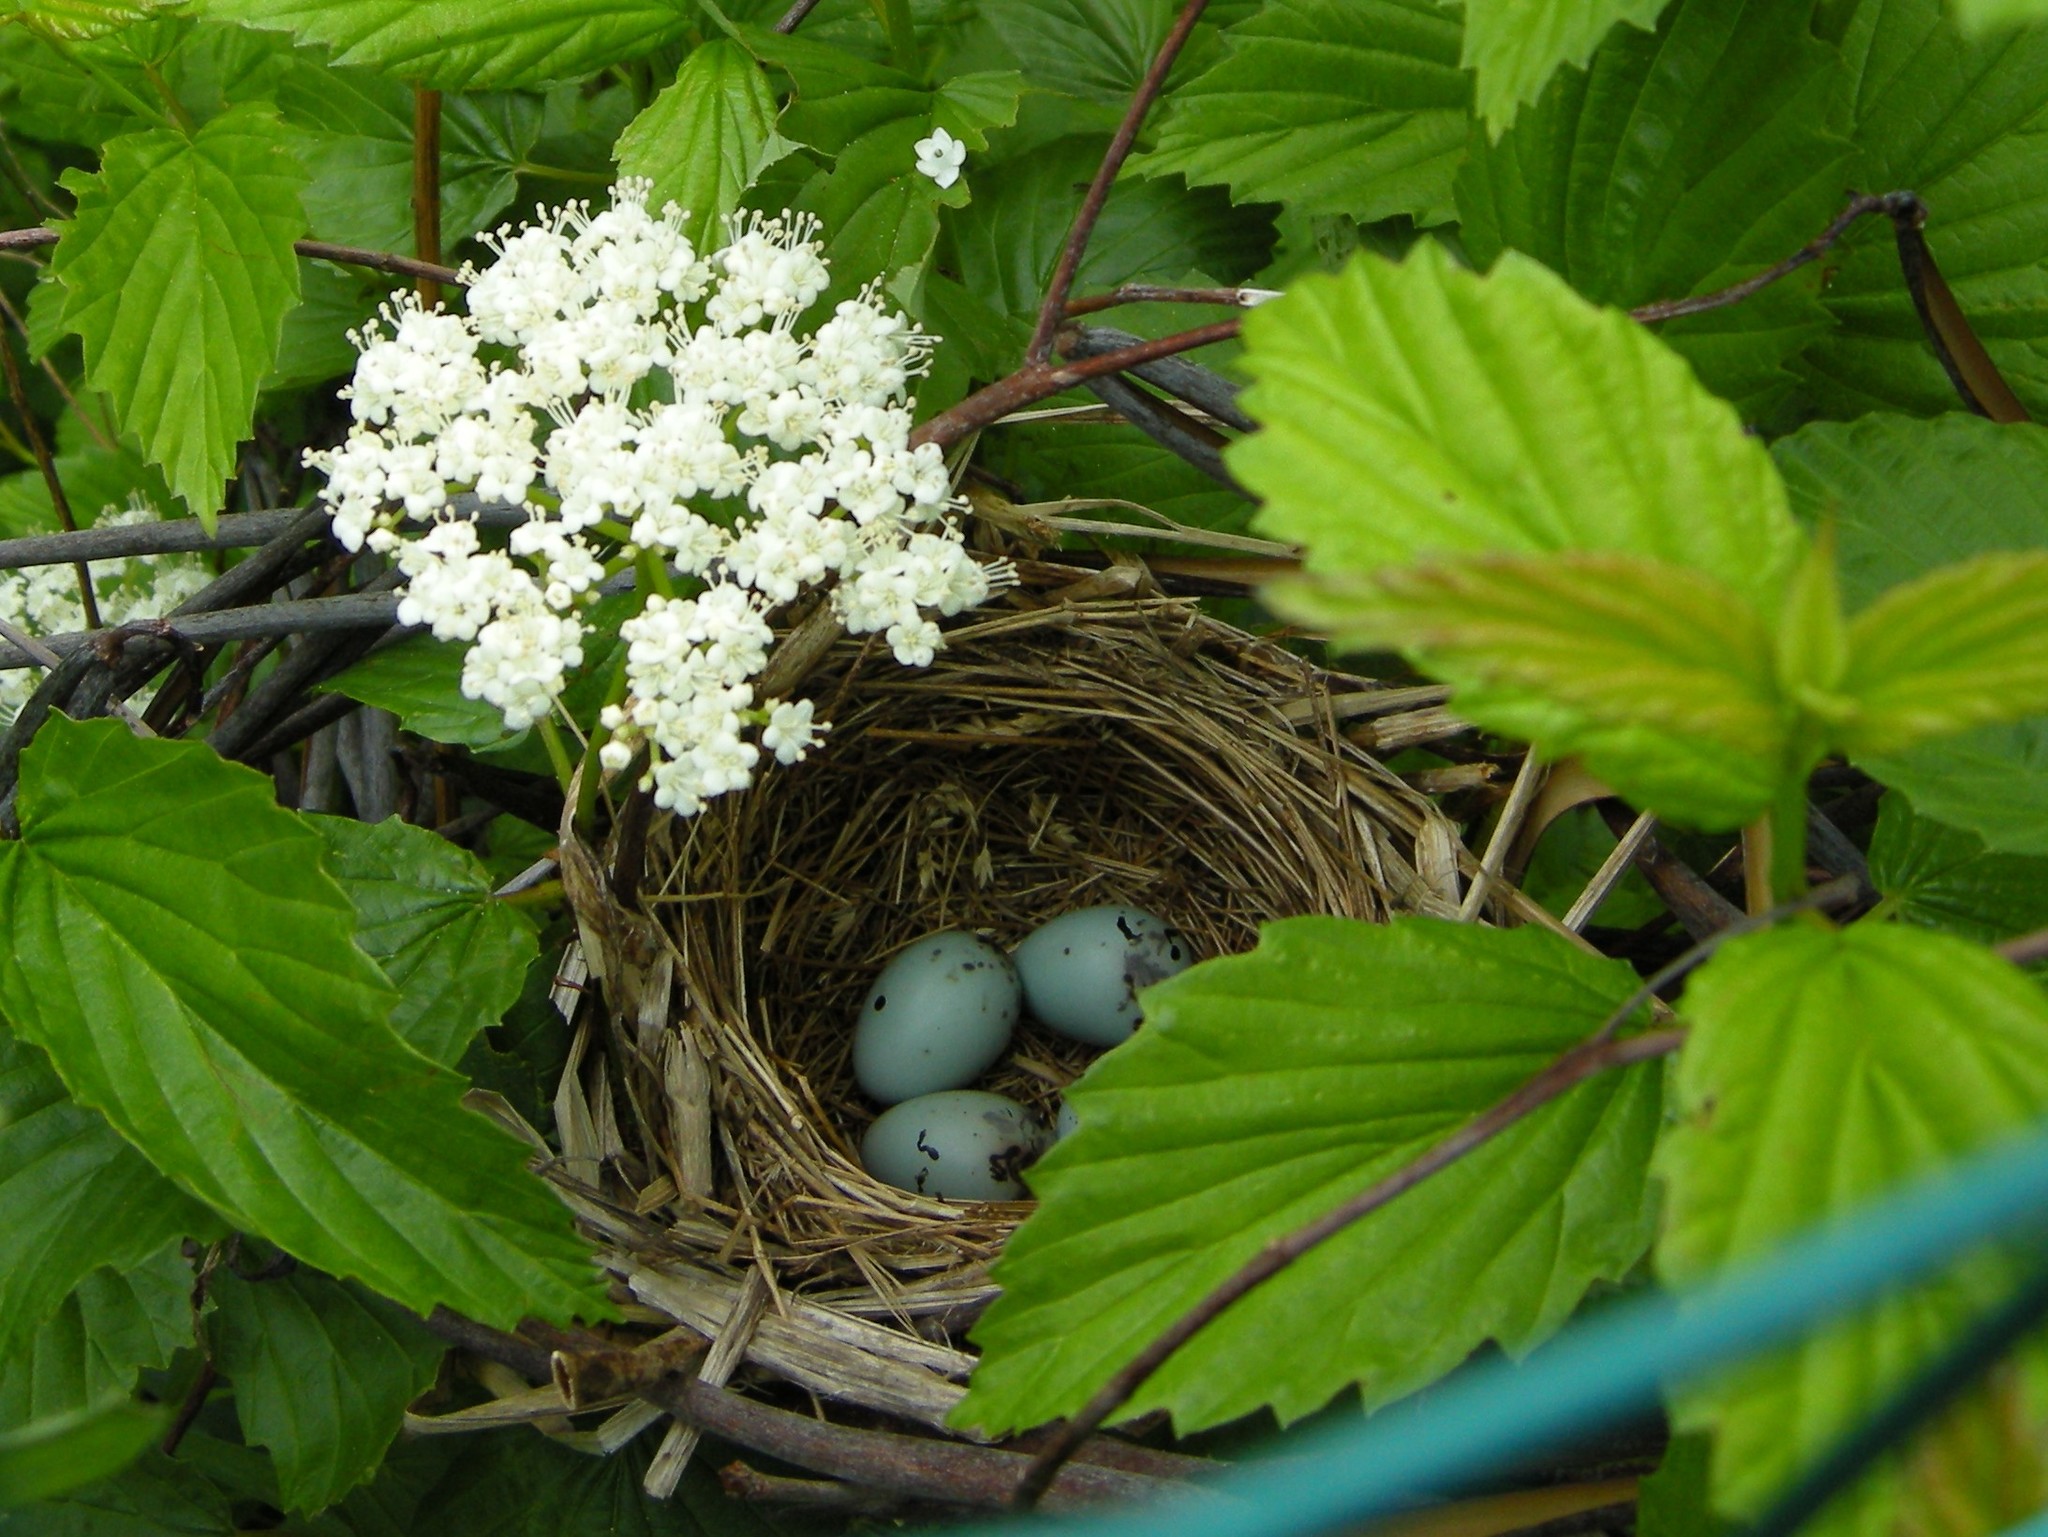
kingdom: Animalia
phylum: Chordata
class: Aves
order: Passeriformes
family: Icteridae
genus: Agelaius
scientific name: Agelaius phoeniceus
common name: Red-winged blackbird
